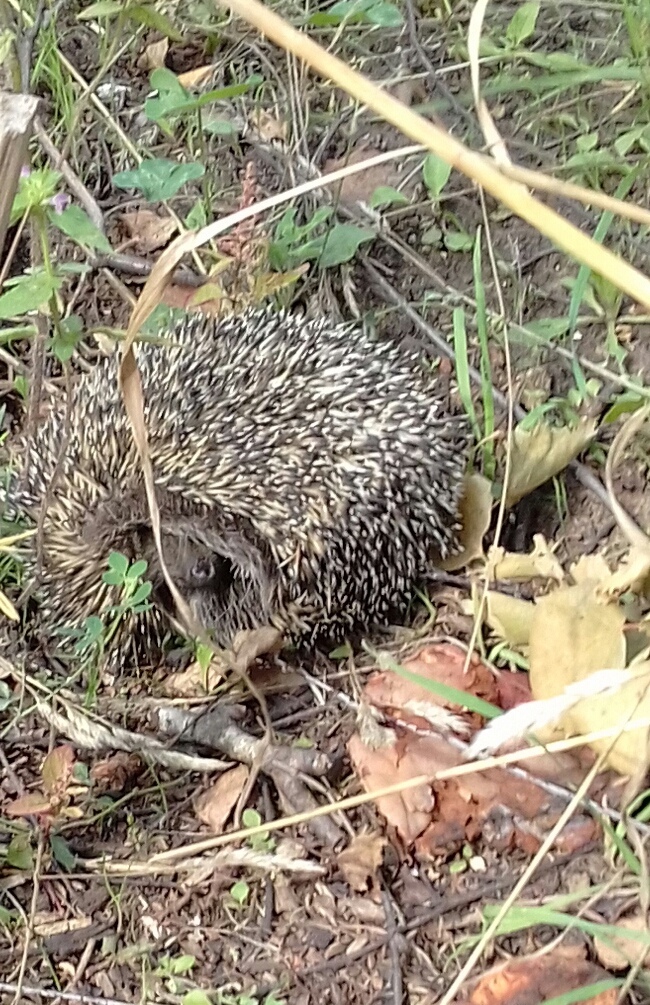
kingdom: Animalia
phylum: Chordata
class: Mammalia
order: Erinaceomorpha
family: Erinaceidae
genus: Erinaceus
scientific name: Erinaceus roumanicus
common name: Northern white-breasted hedgehog
